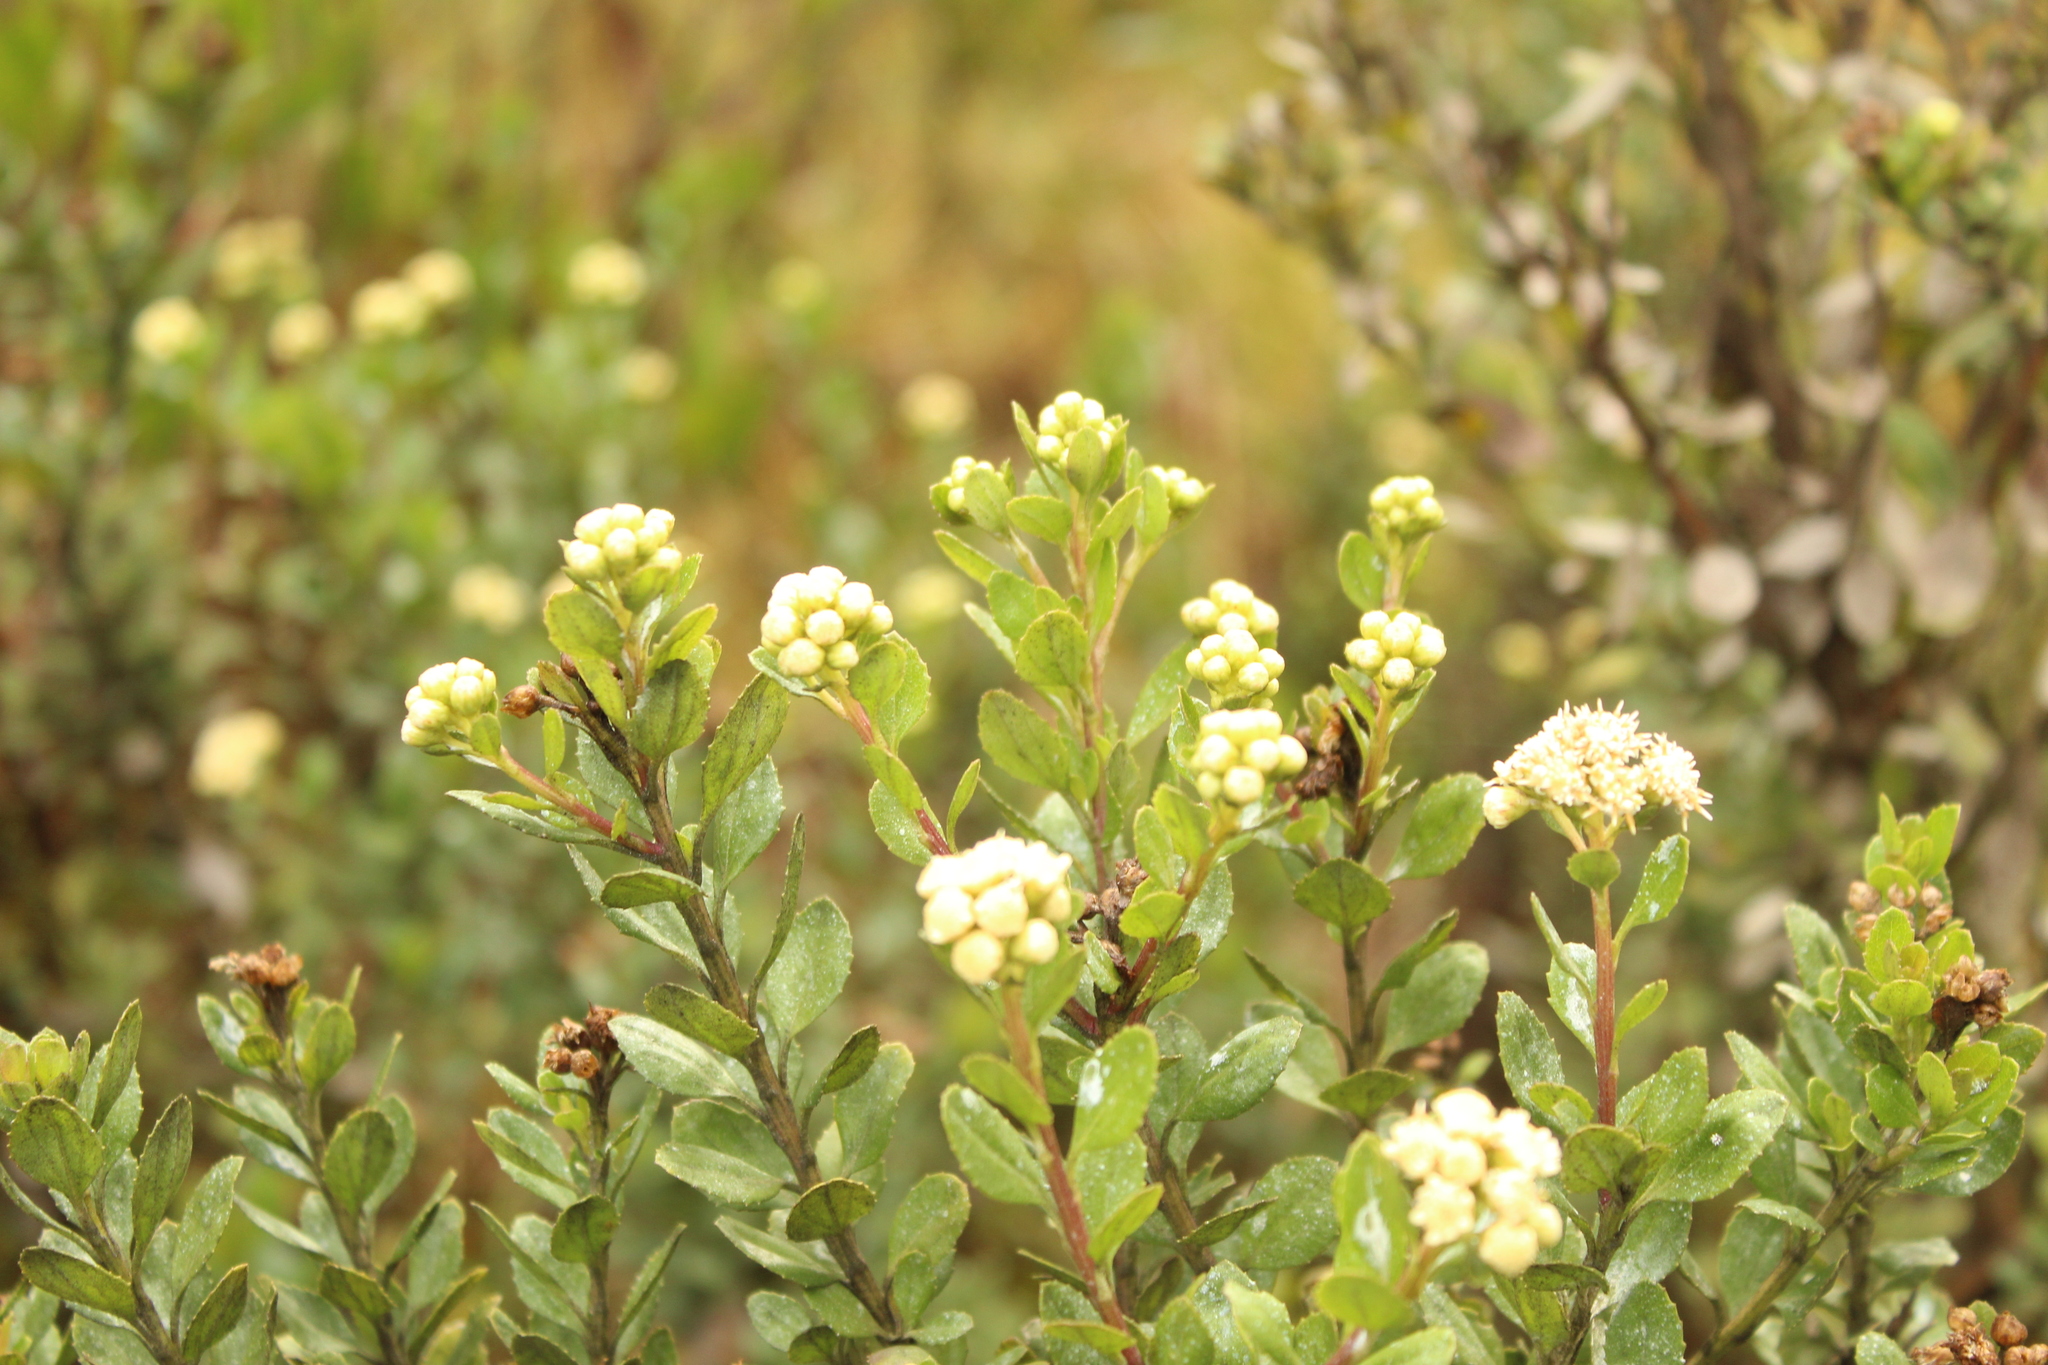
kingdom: Plantae
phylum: Tracheophyta
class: Magnoliopsida
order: Asterales
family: Asteraceae
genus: Baccharis
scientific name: Baccharis rupicola
